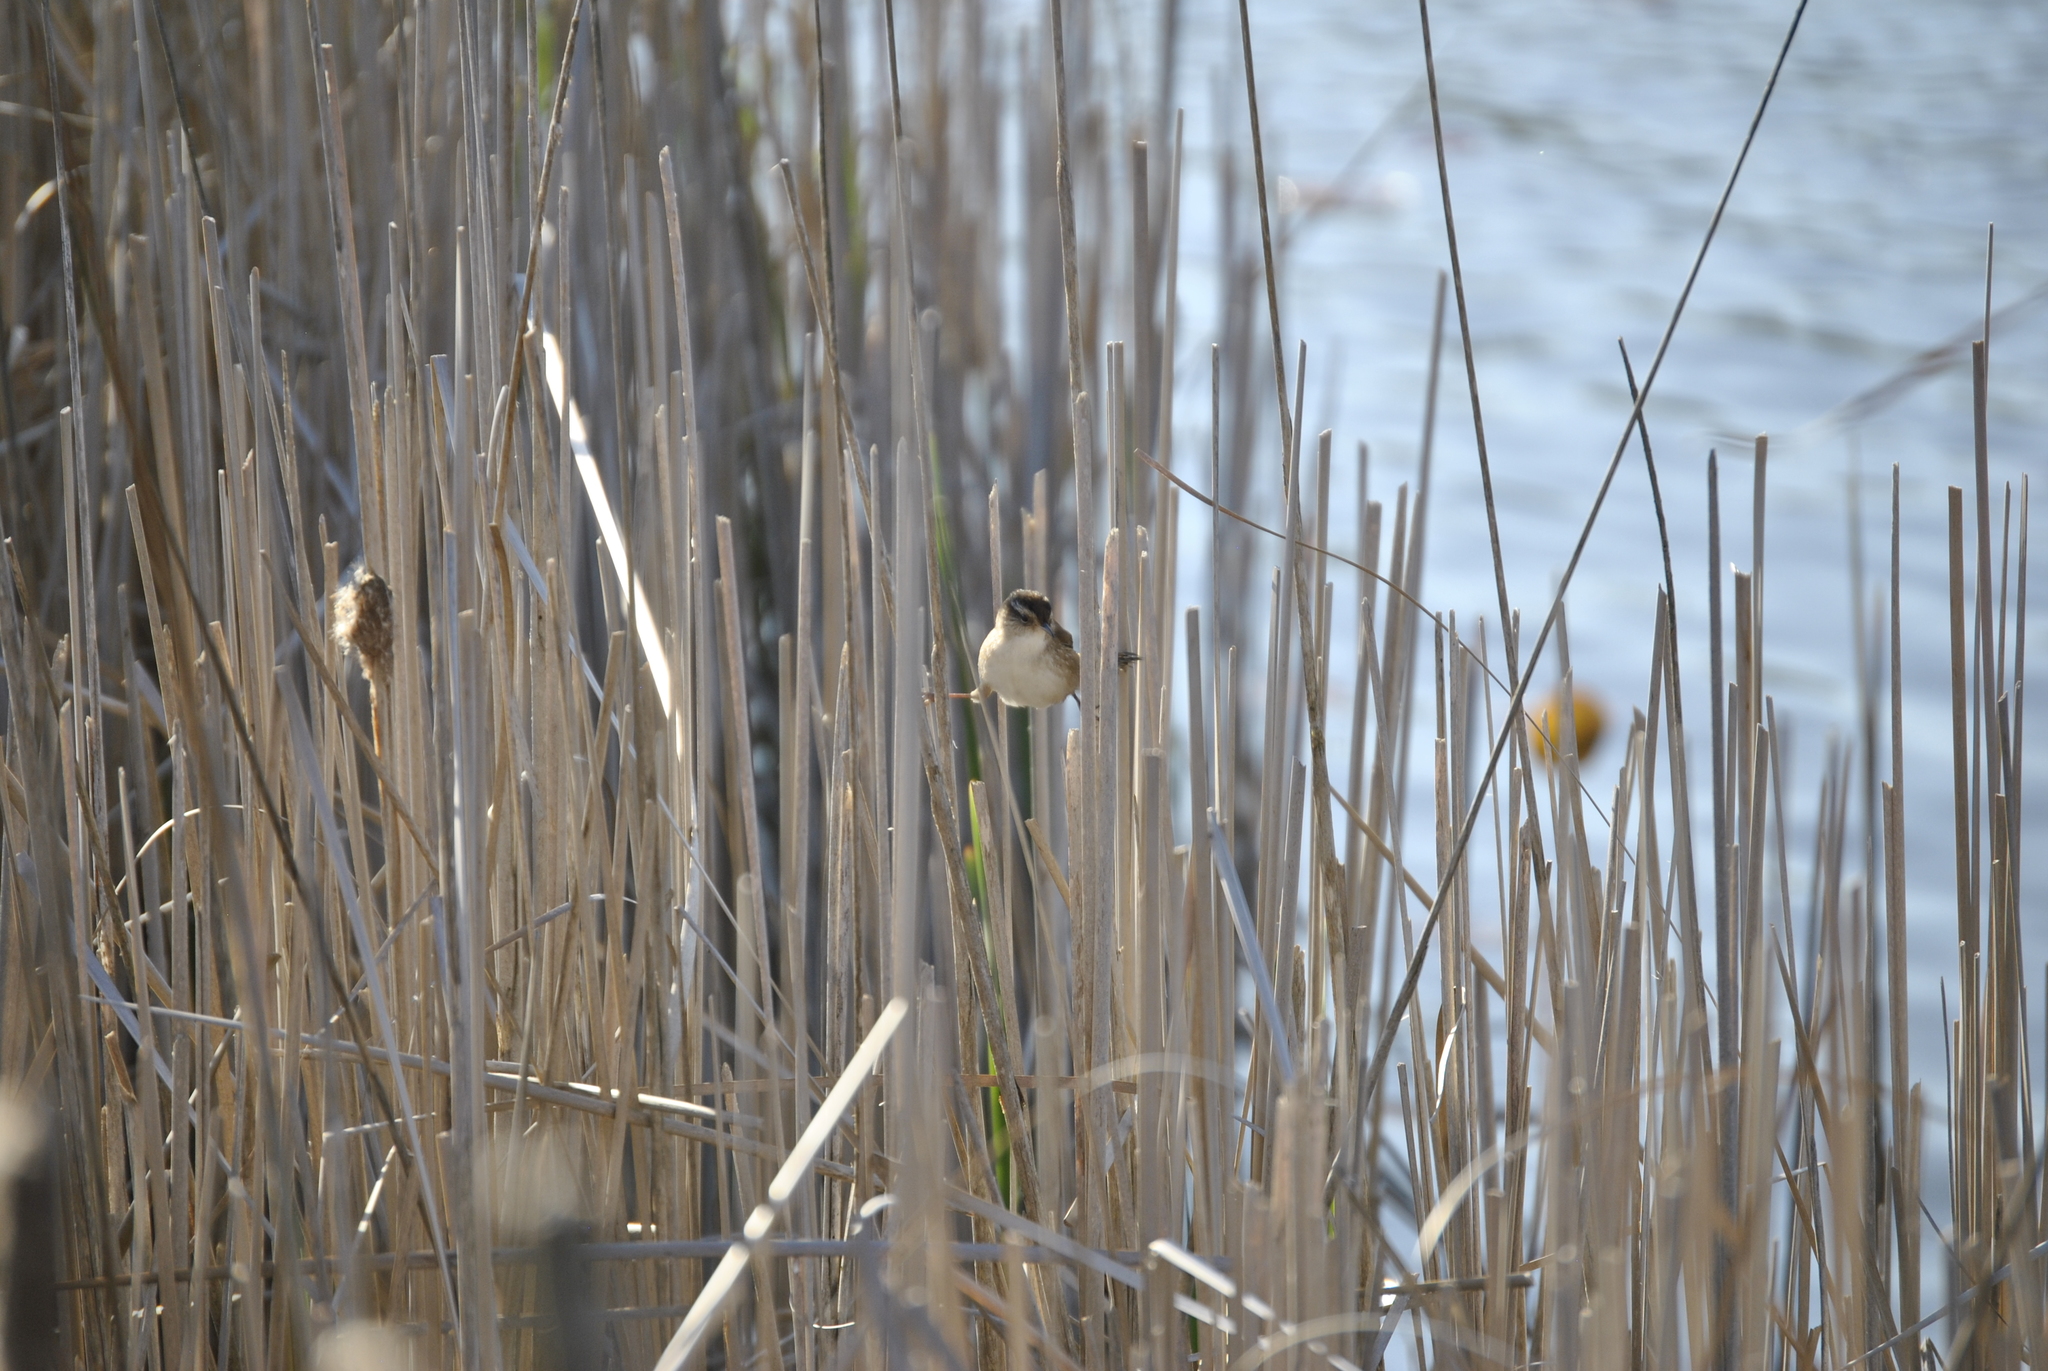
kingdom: Animalia
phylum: Chordata
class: Aves
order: Passeriformes
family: Troglodytidae
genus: Cistothorus
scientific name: Cistothorus palustris
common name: Marsh wren
